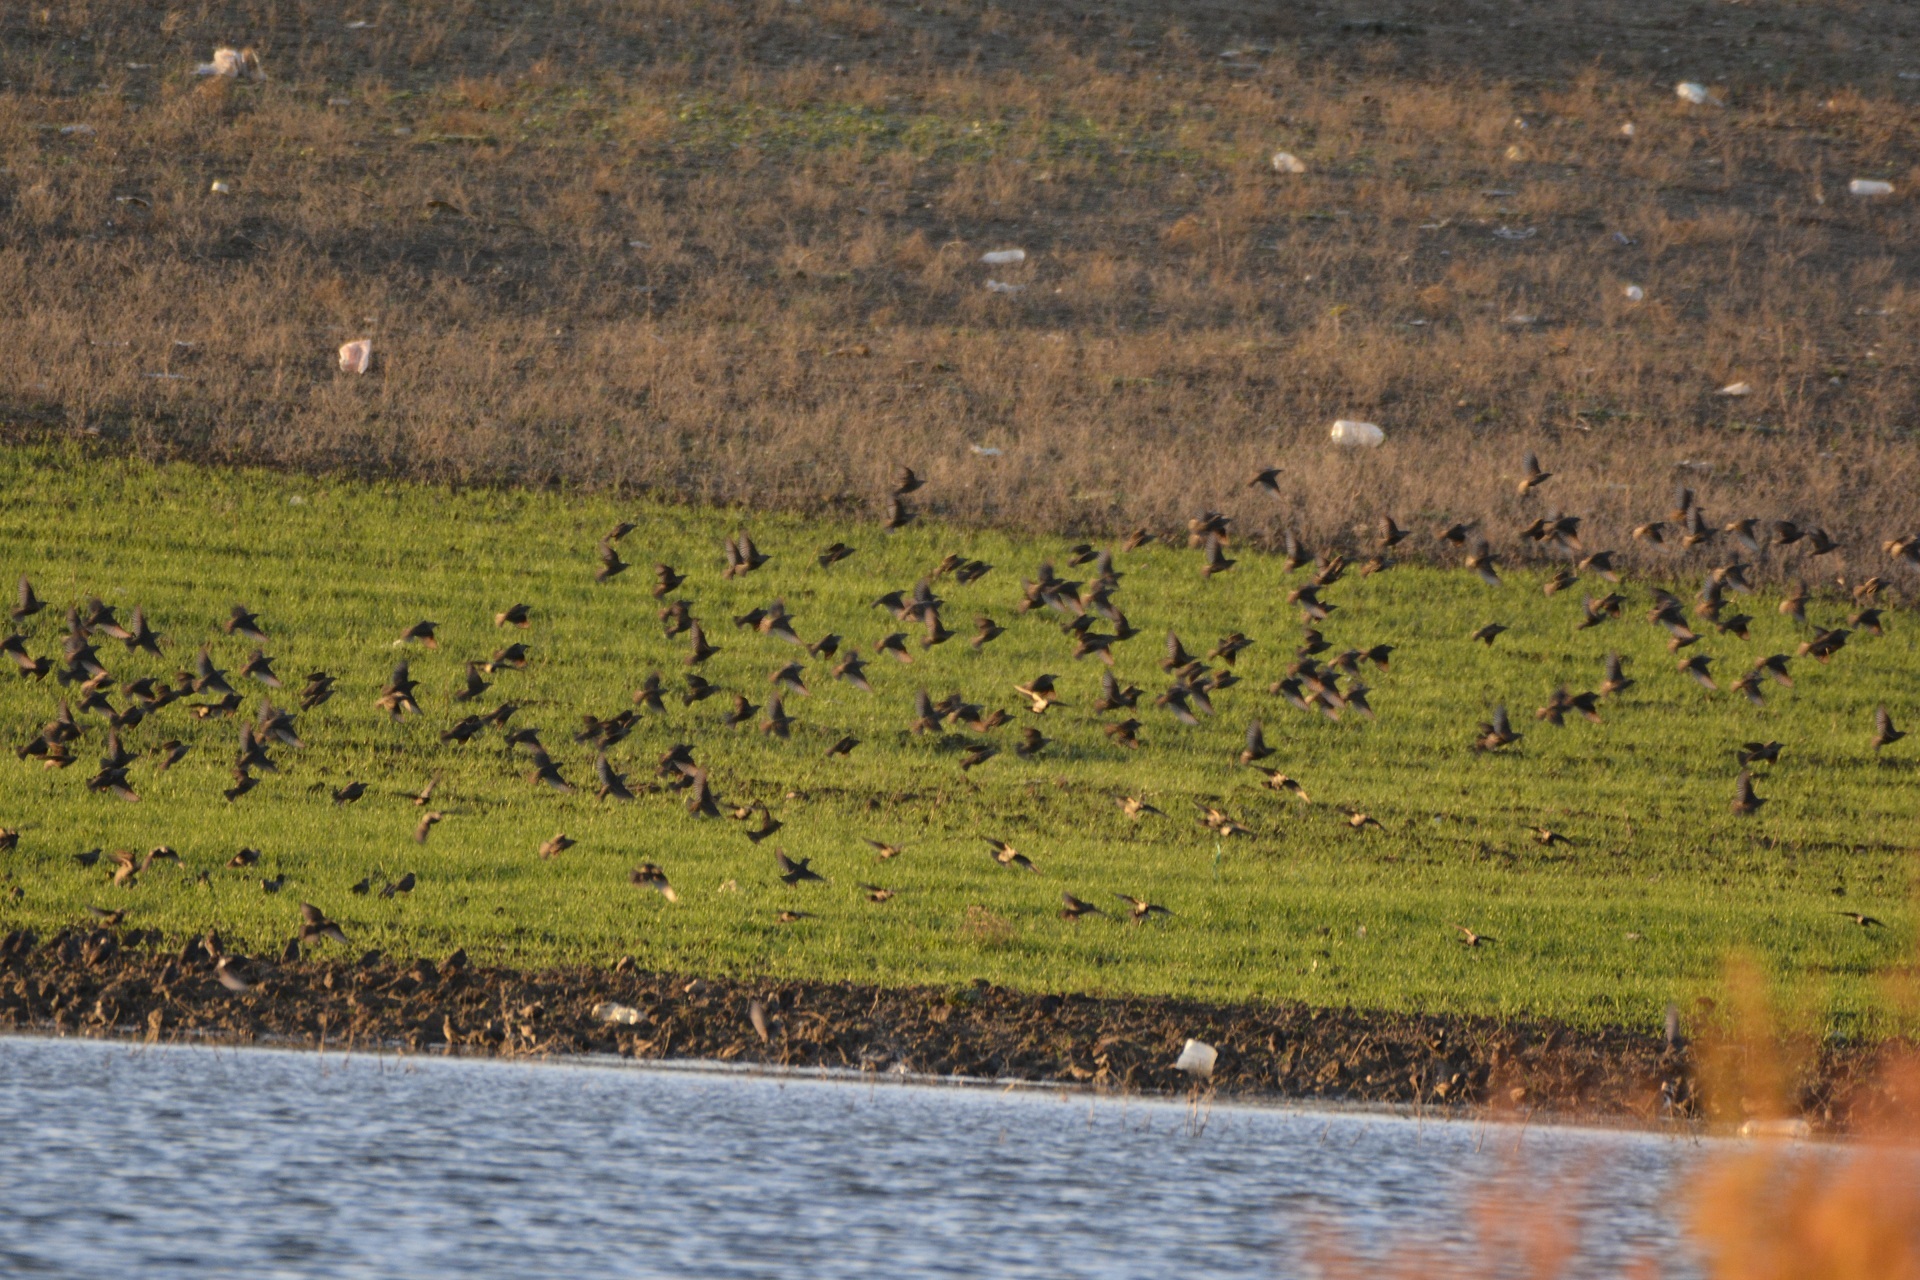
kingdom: Animalia
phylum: Chordata
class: Aves
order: Passeriformes
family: Sturnidae
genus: Sturnus
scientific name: Sturnus vulgaris
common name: Common starling
